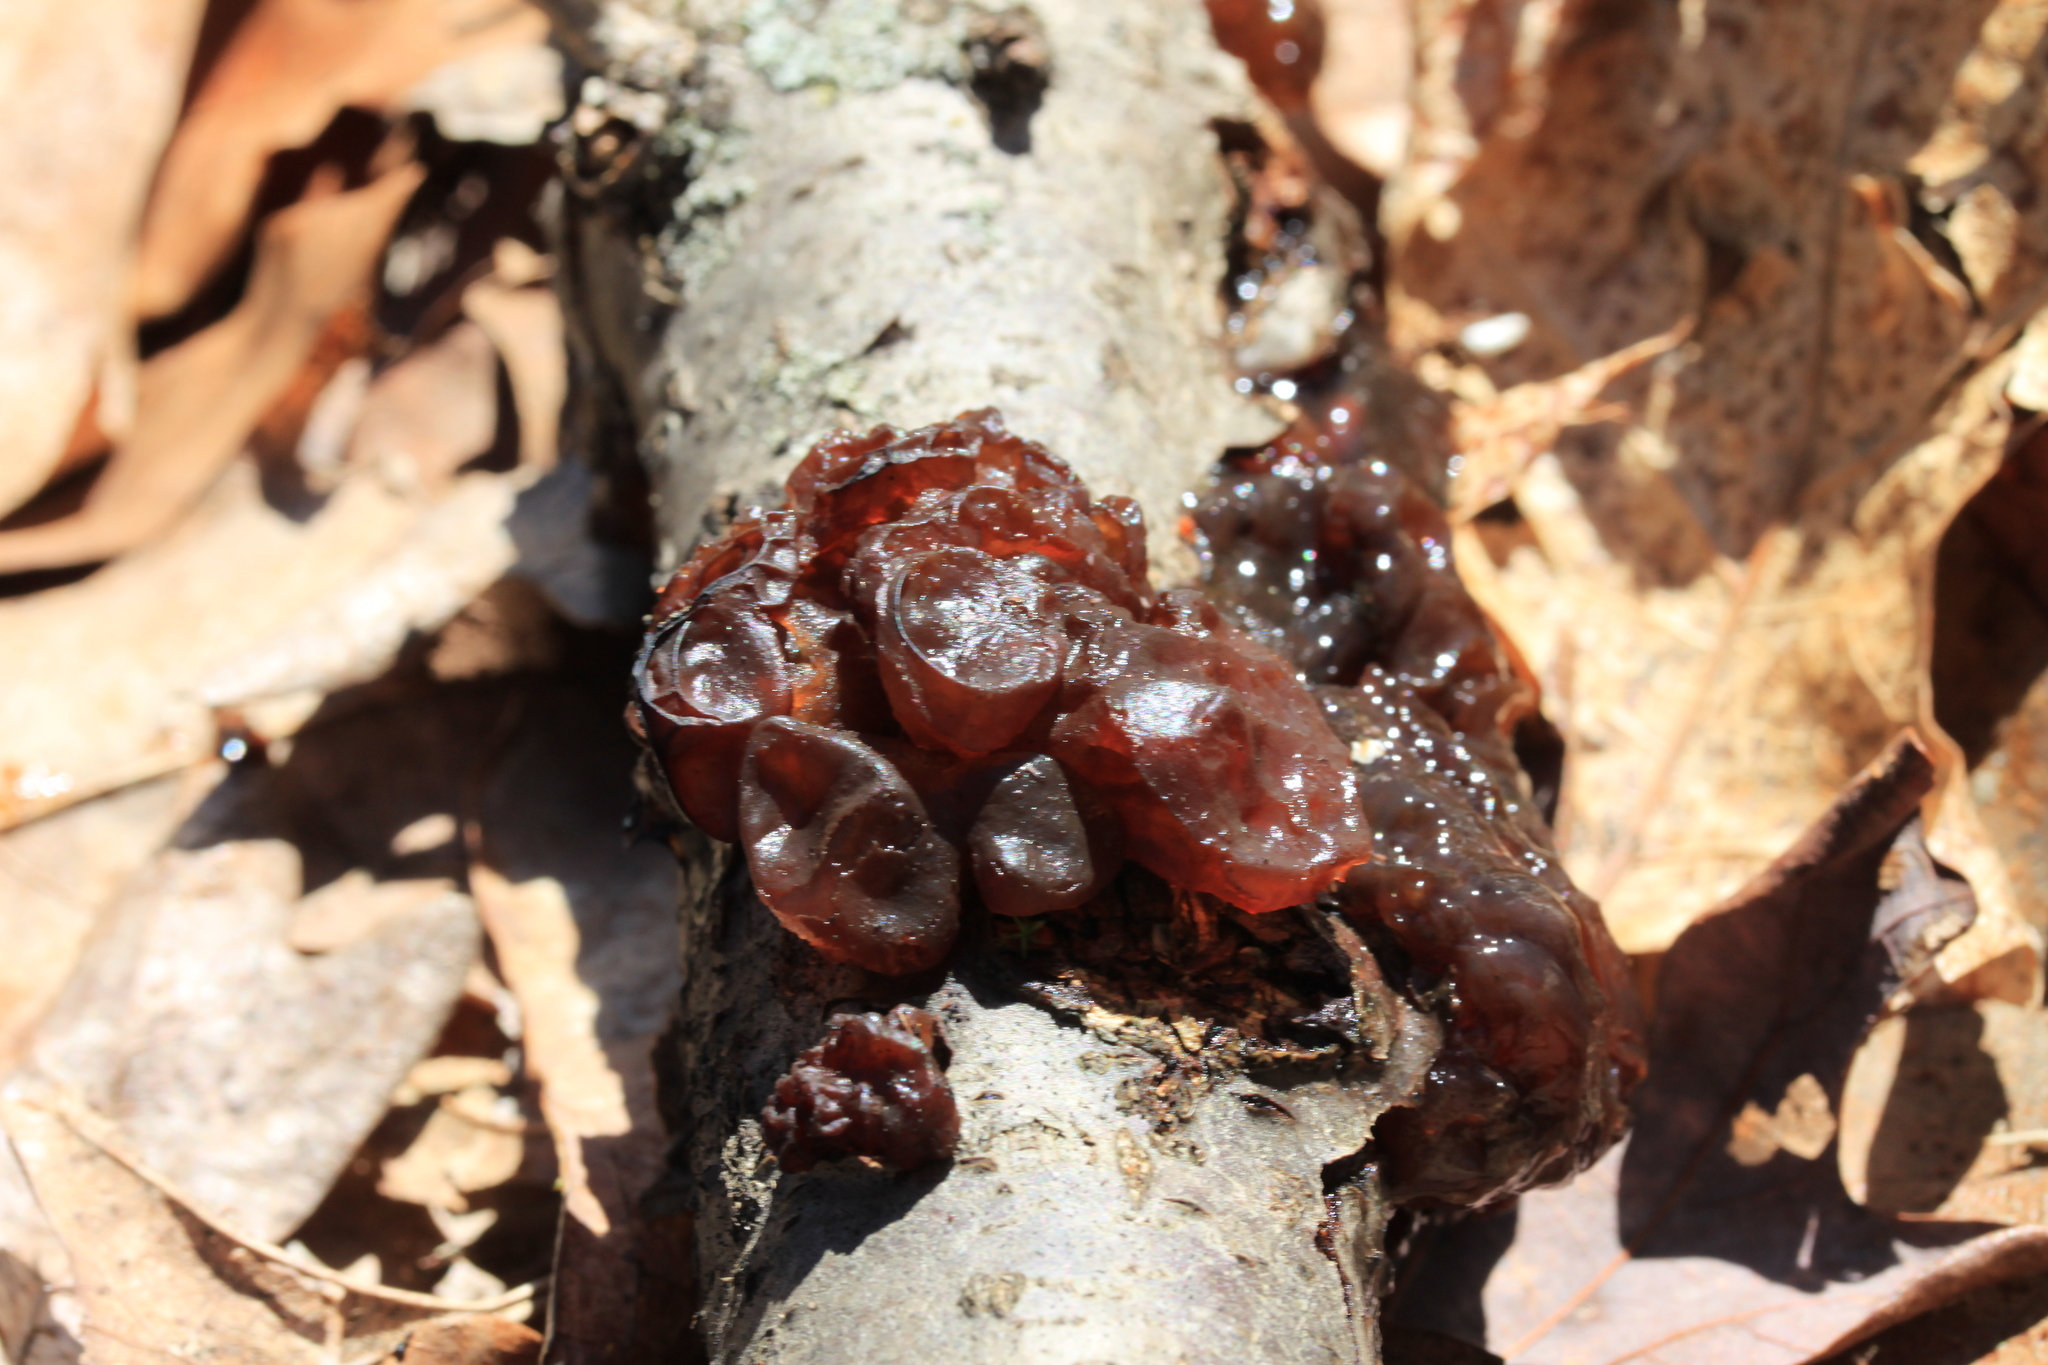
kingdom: Fungi
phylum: Basidiomycota
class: Agaricomycetes
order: Auriculariales
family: Auriculariaceae
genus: Exidia
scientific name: Exidia
